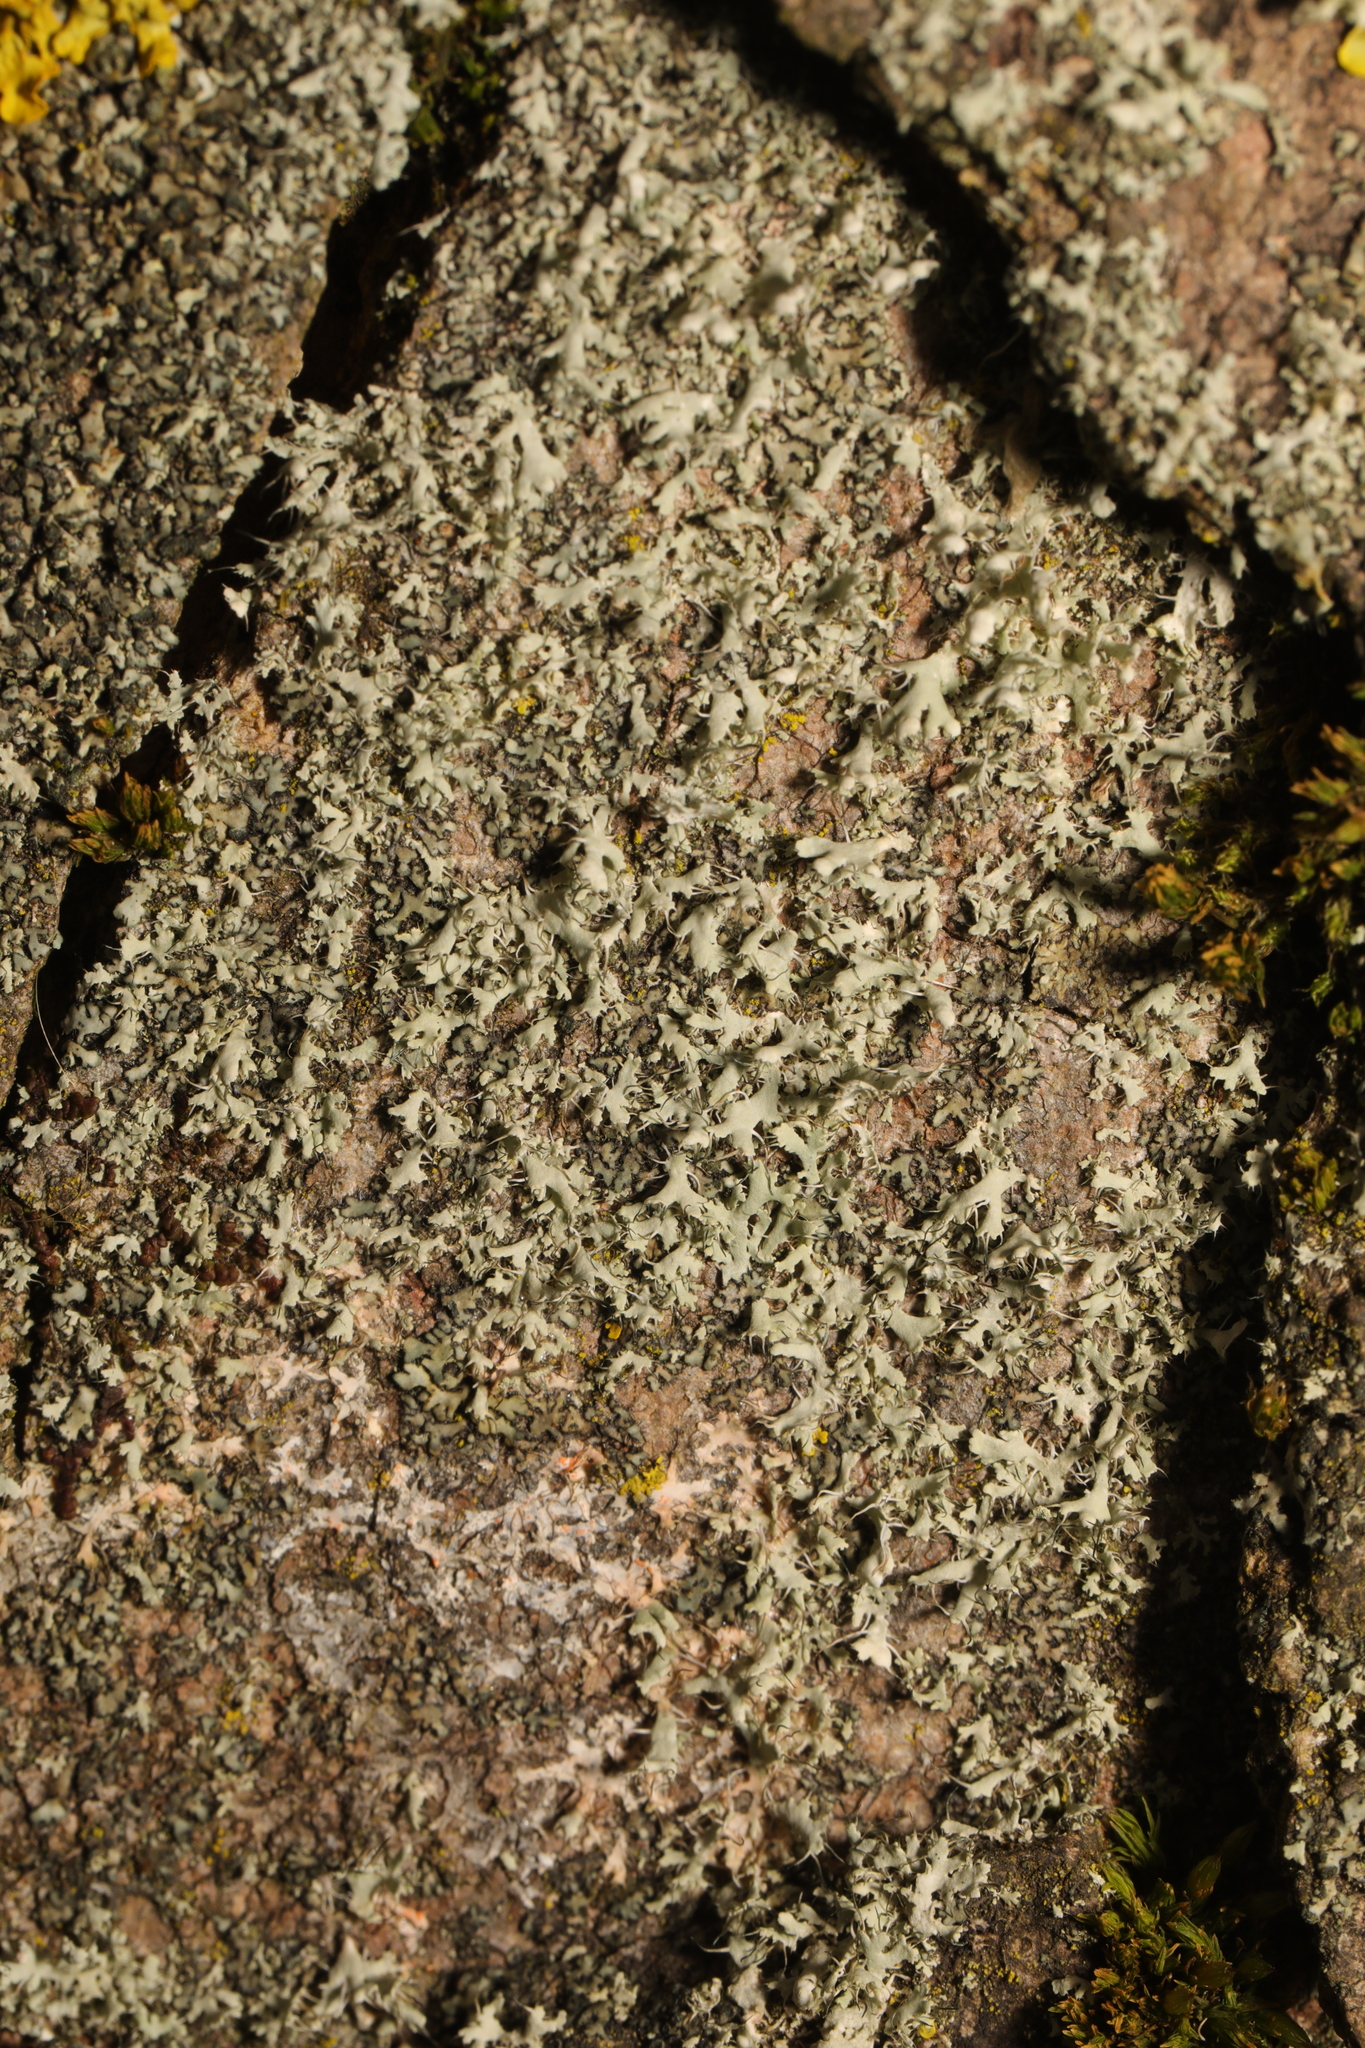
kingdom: Fungi
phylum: Ascomycota
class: Lecanoromycetes
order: Caliciales
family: Physciaceae
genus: Physcia
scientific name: Physcia adscendens
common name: Hooded rosette lichen
